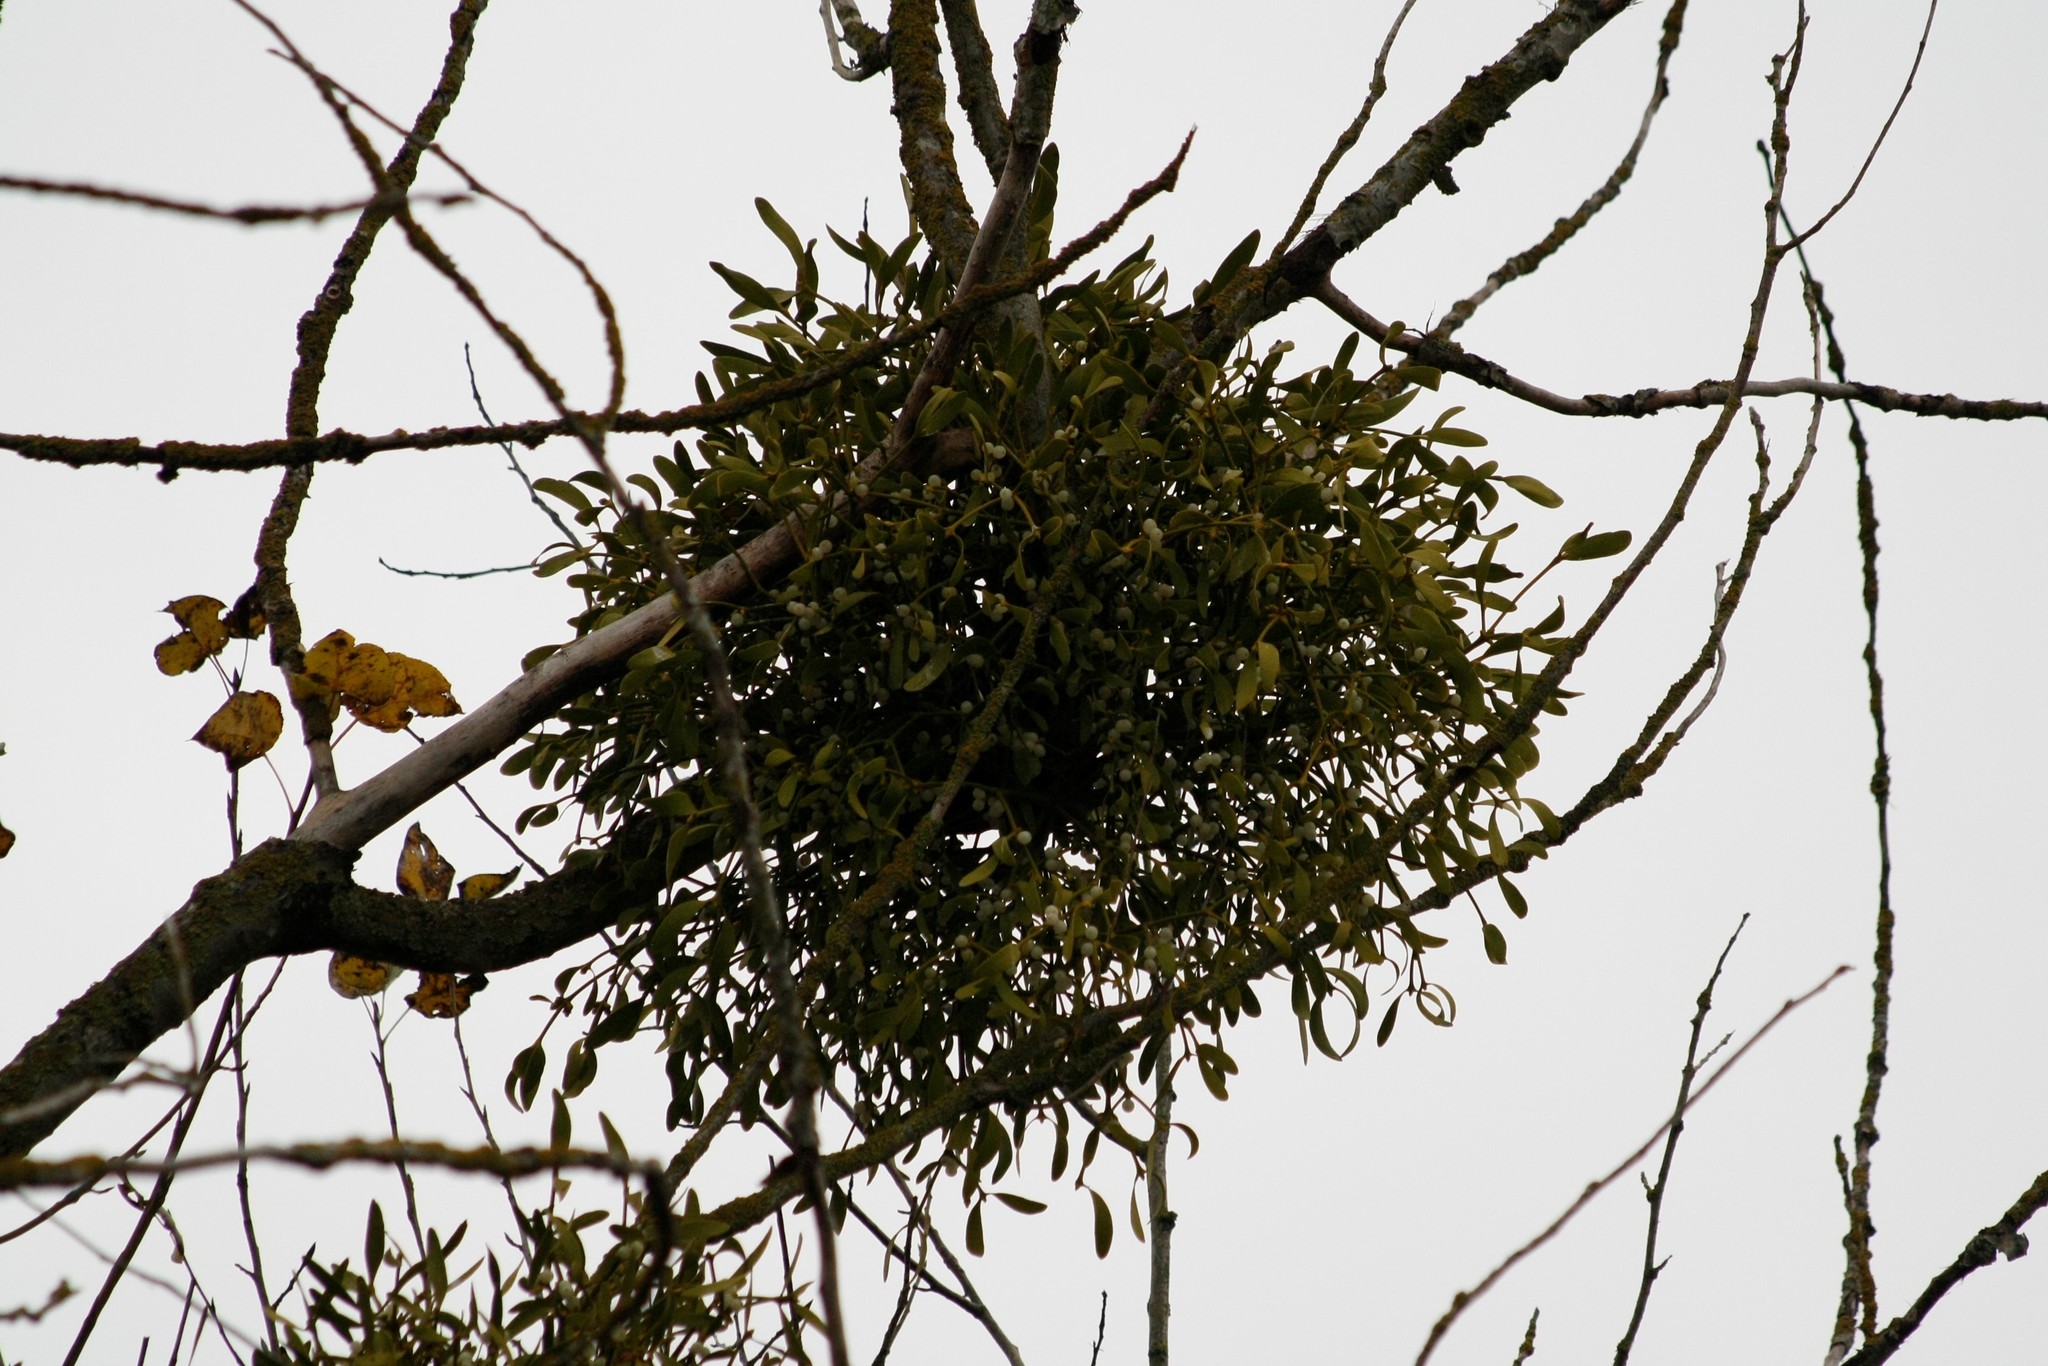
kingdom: Plantae
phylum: Tracheophyta
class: Magnoliopsida
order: Santalales
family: Viscaceae
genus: Viscum
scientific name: Viscum album
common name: Mistletoe
